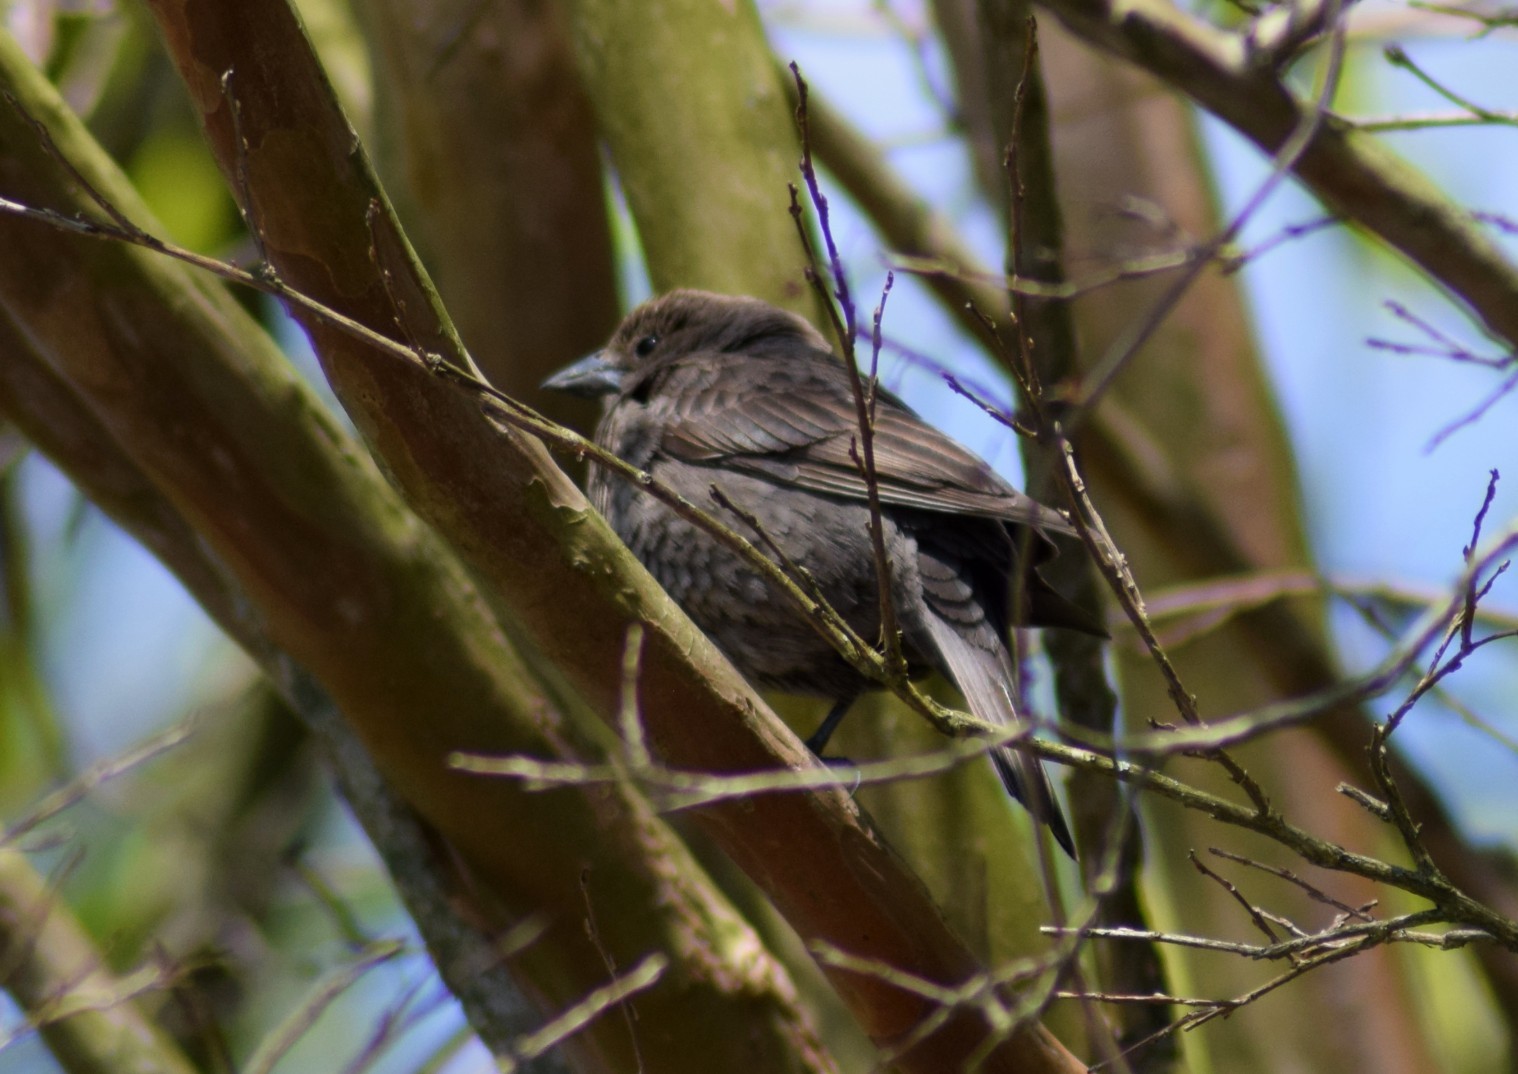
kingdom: Animalia
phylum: Chordata
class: Aves
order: Passeriformes
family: Icteridae
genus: Molothrus
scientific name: Molothrus ater
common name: Brown-headed cowbird
